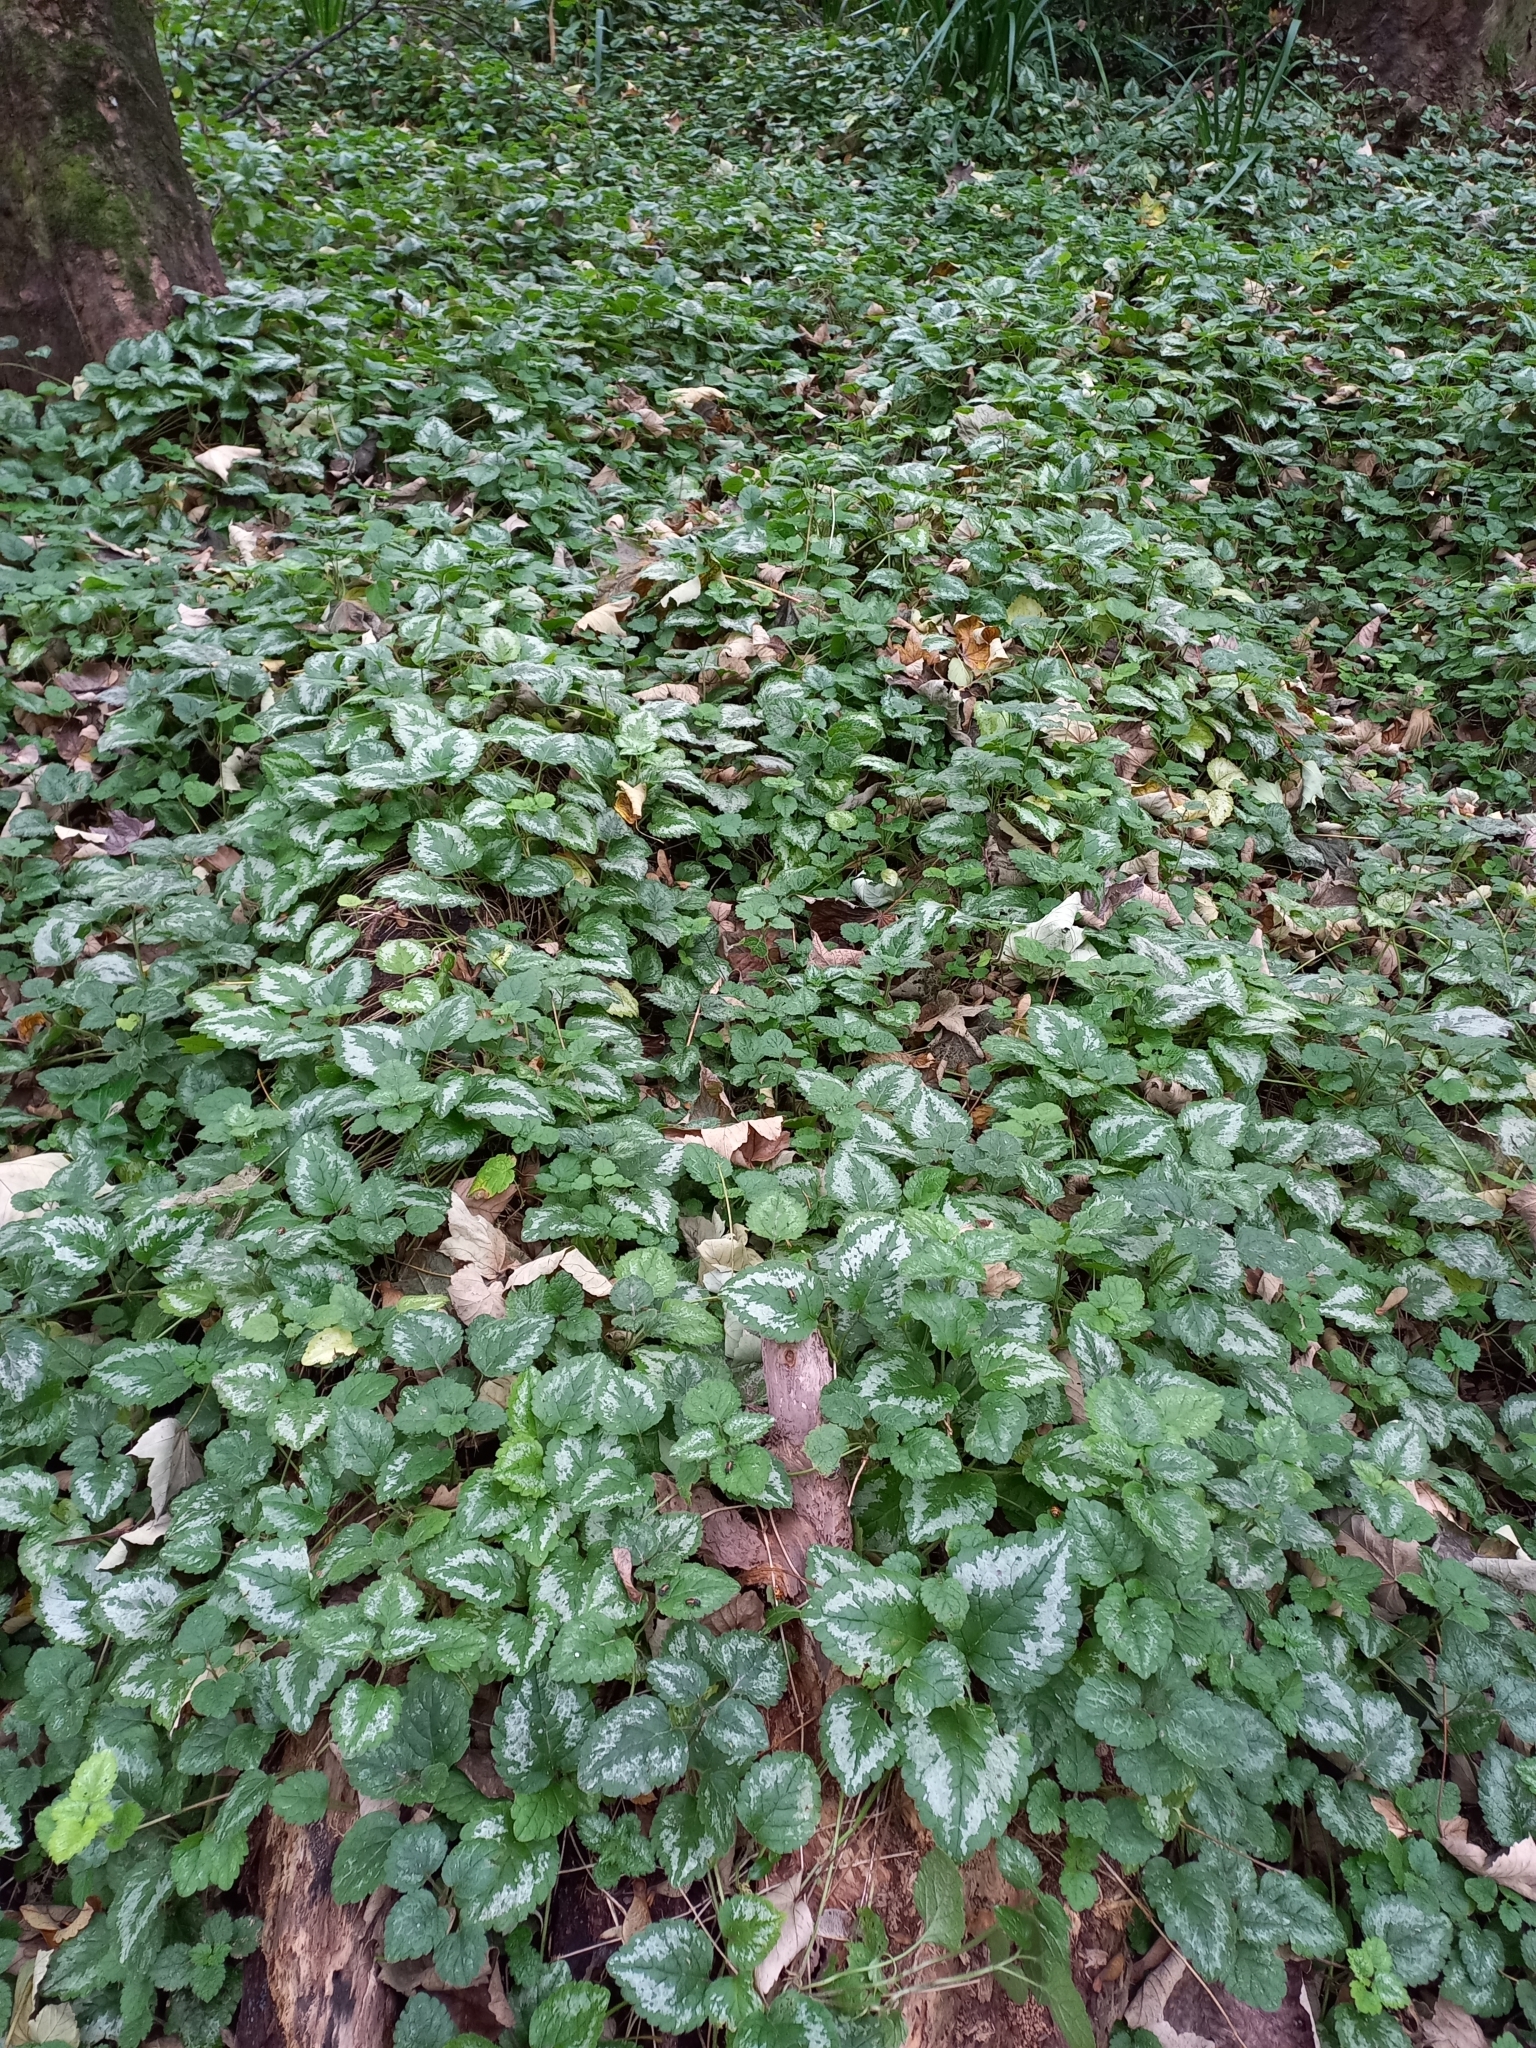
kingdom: Plantae
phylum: Tracheophyta
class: Magnoliopsida
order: Lamiales
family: Lamiaceae
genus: Lamium
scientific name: Lamium galeobdolon
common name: Yellow archangel
